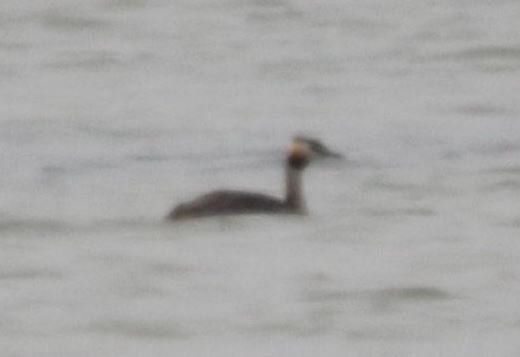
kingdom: Animalia
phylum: Chordata
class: Aves
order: Podicipediformes
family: Podicipedidae
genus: Podiceps
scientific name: Podiceps cristatus
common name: Great crested grebe
